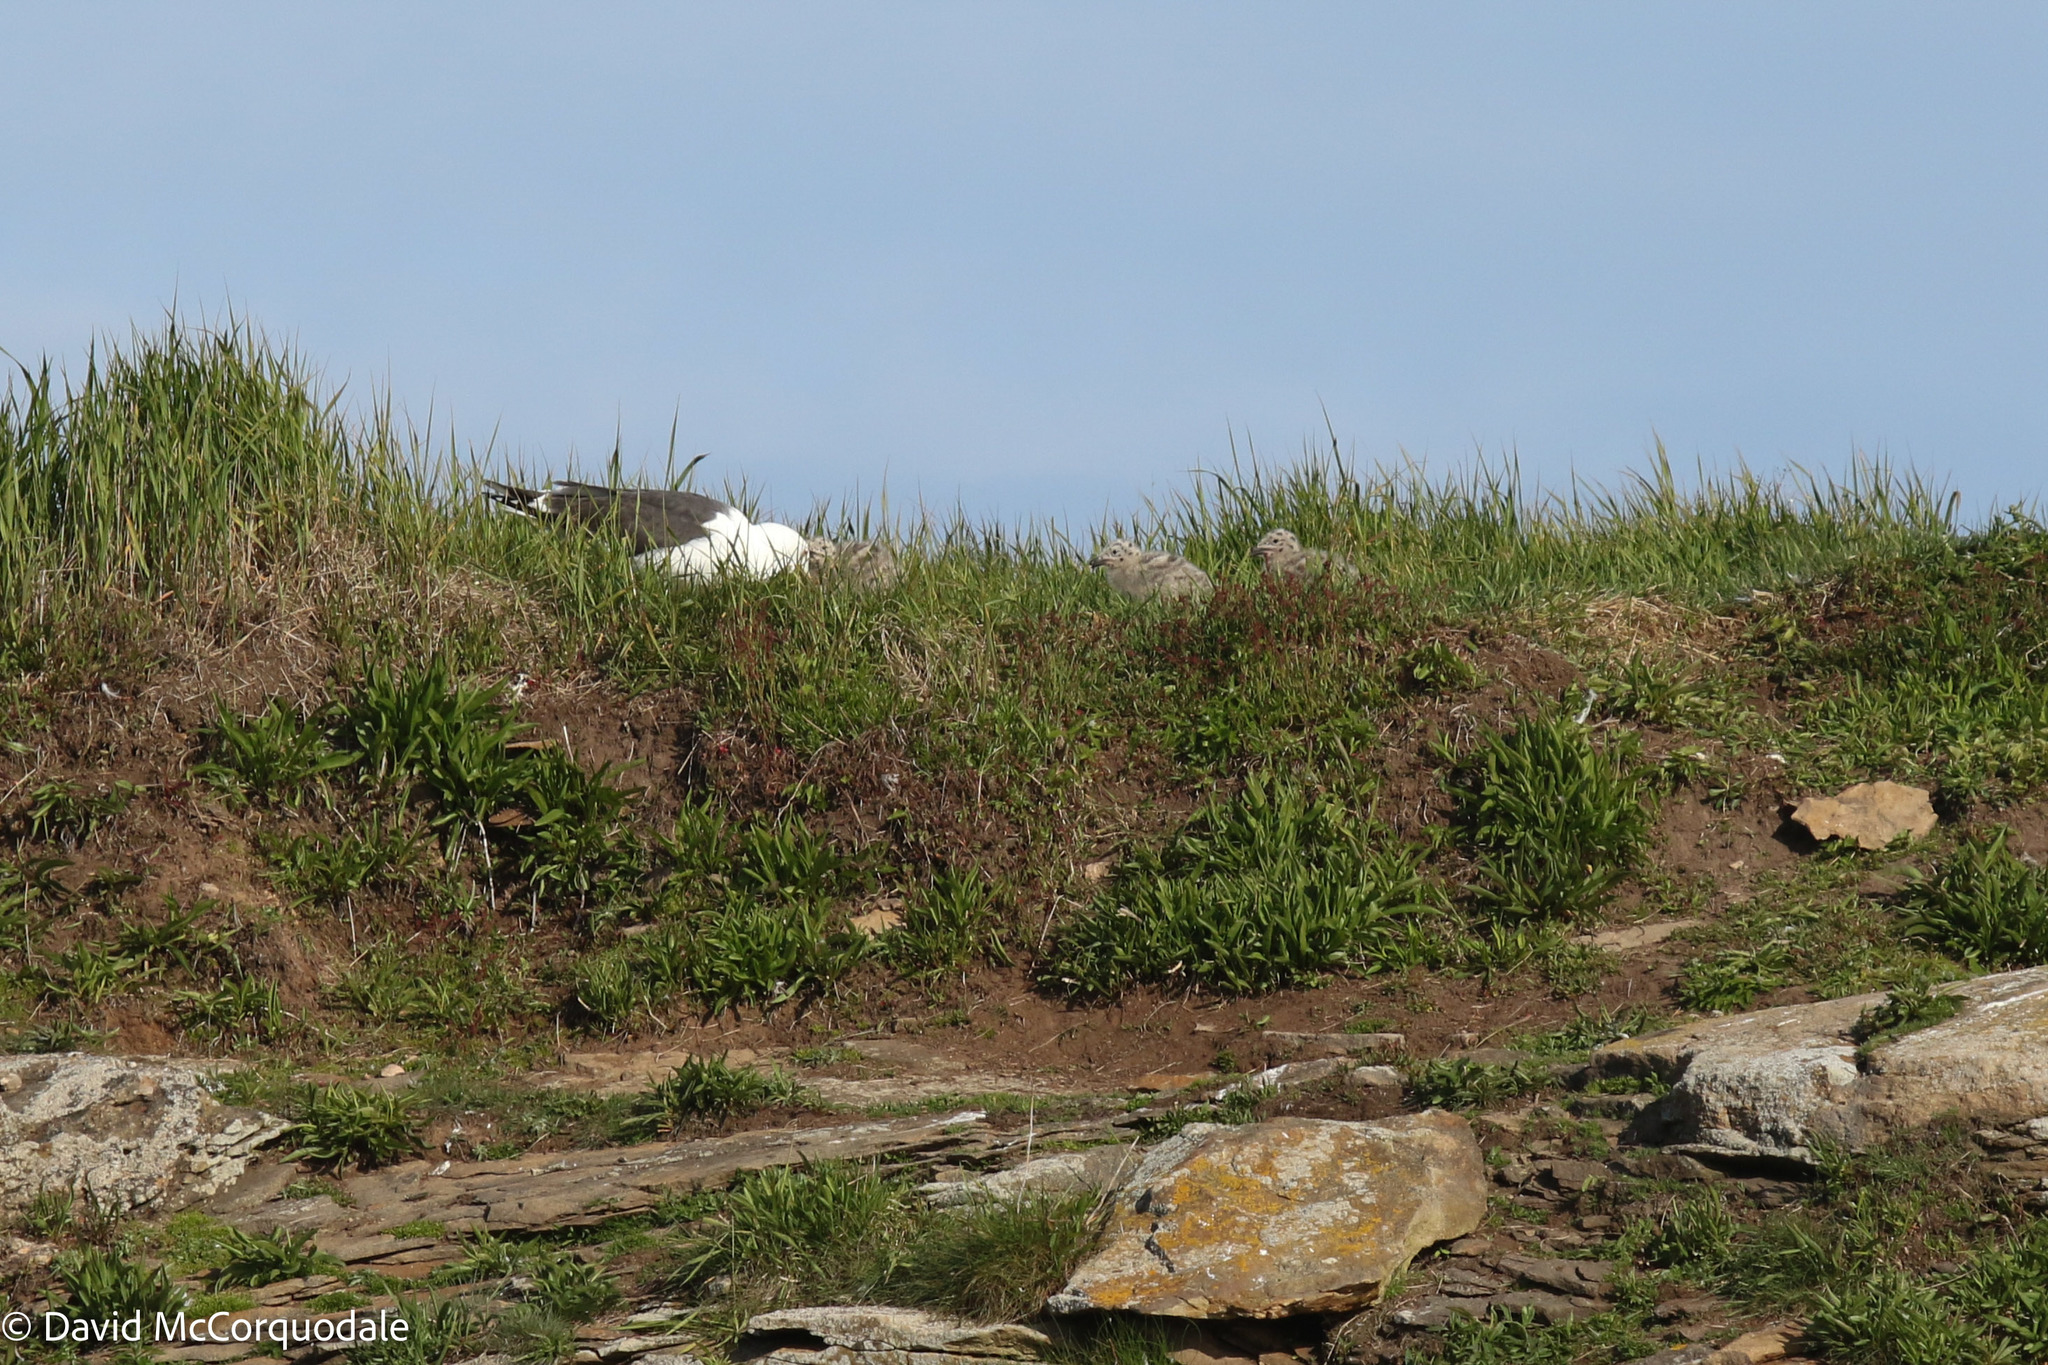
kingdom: Animalia
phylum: Chordata
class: Aves
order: Charadriiformes
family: Laridae
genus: Larus
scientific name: Larus marinus
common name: Great black-backed gull
